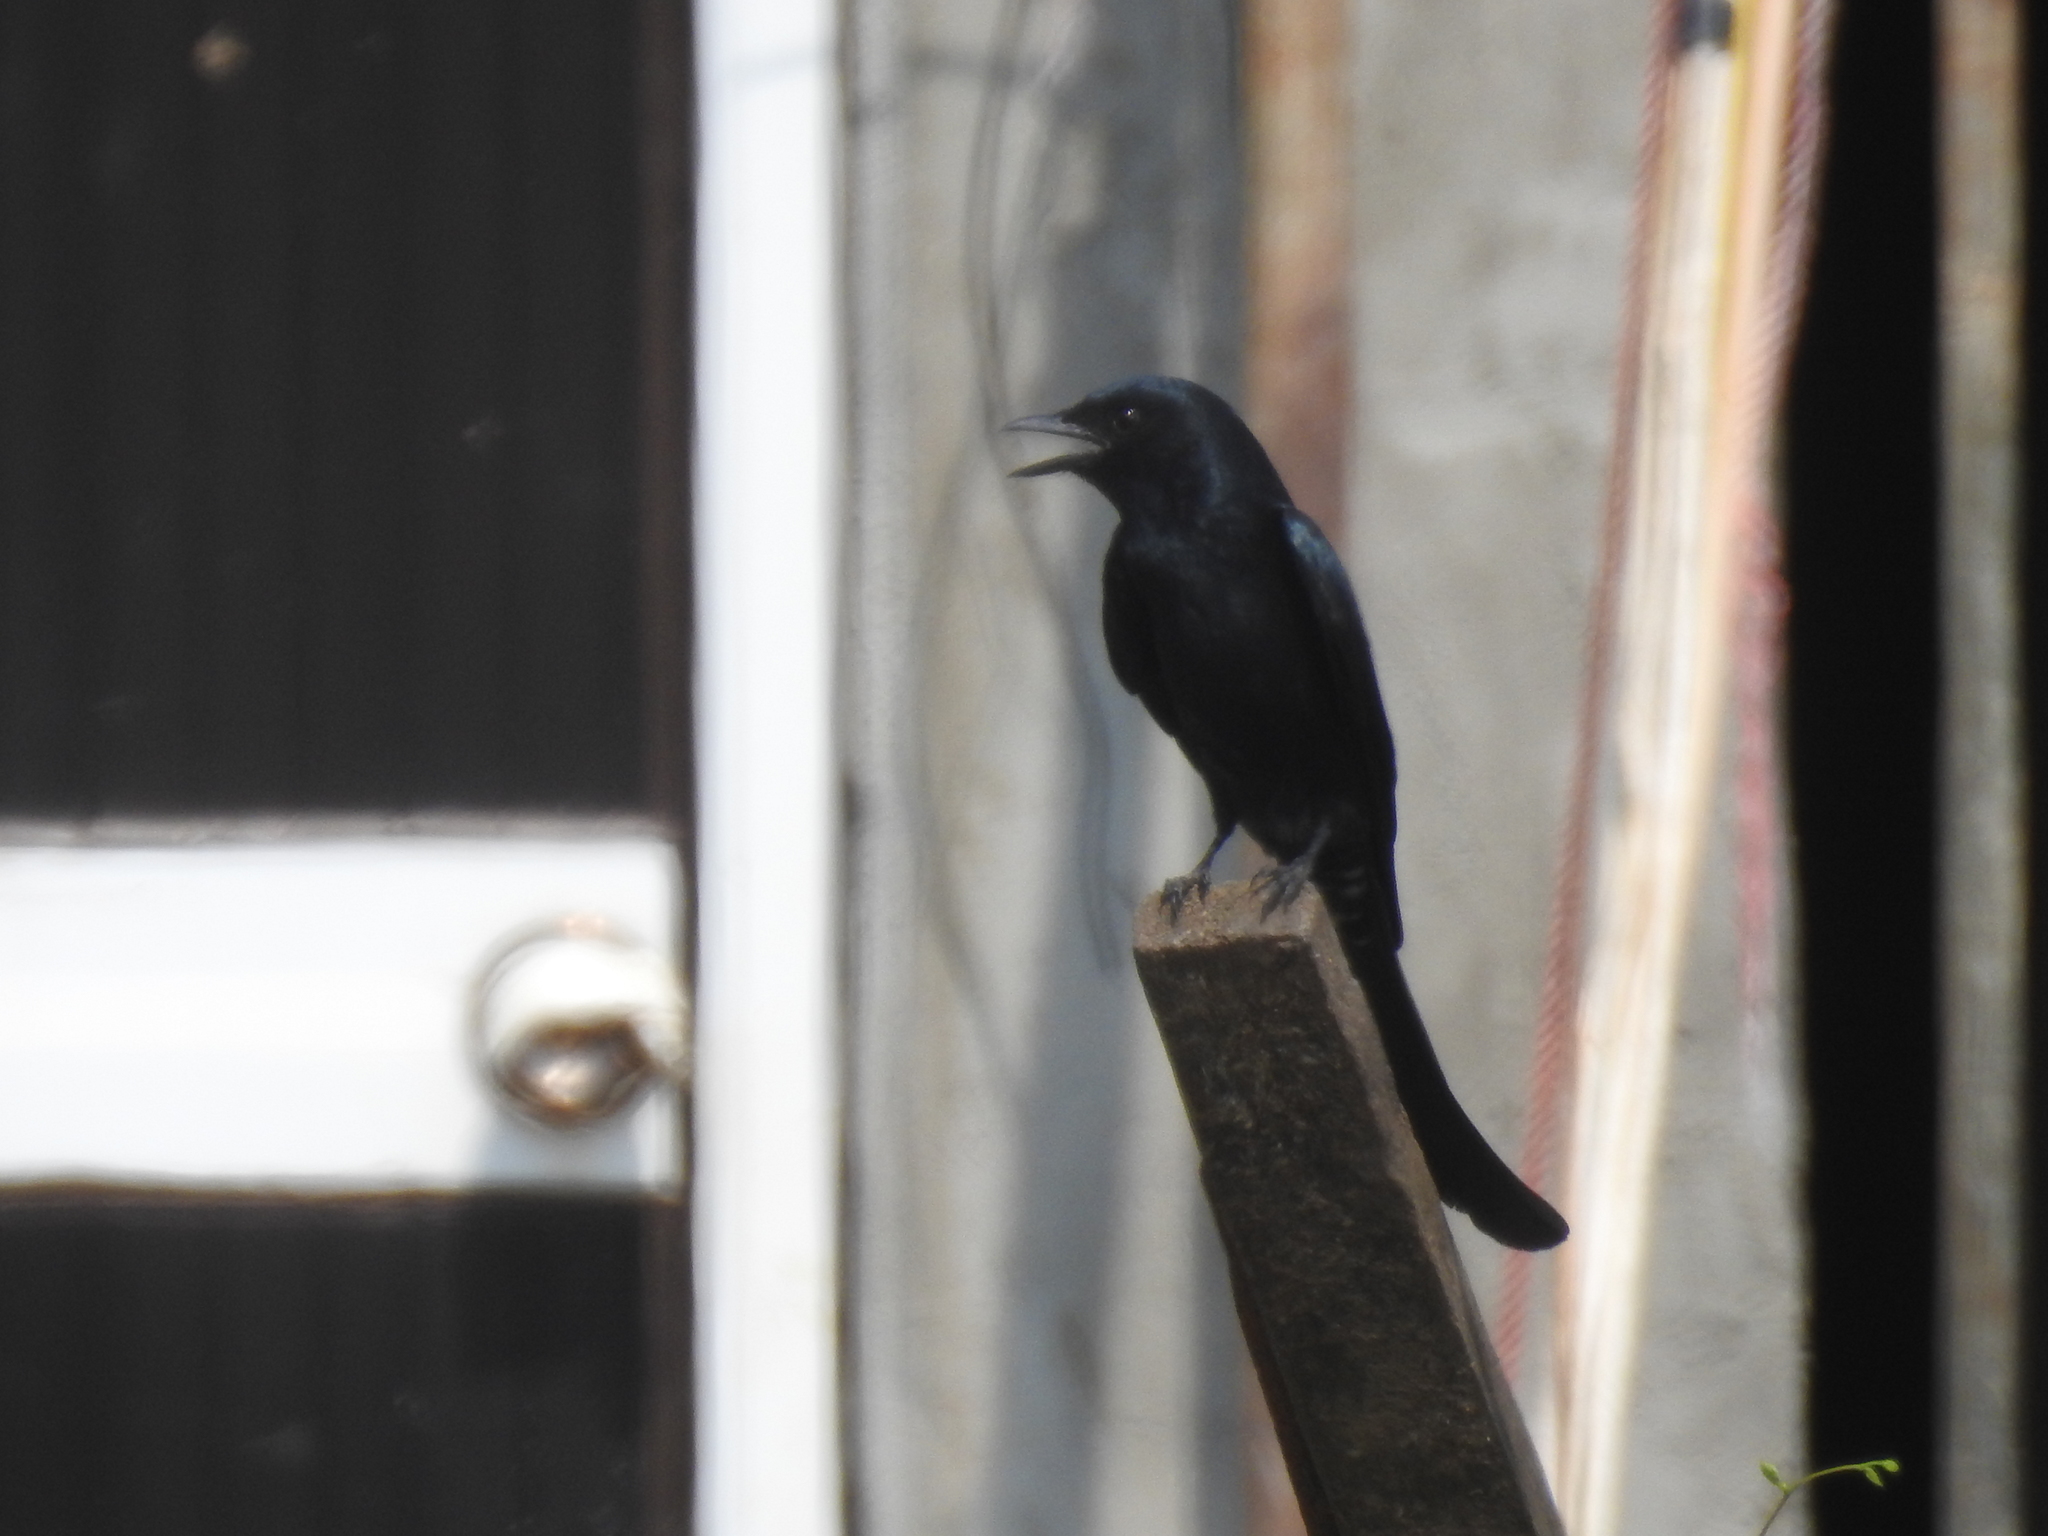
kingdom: Animalia
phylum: Chordata
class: Aves
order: Passeriformes
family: Dicruridae
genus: Dicrurus
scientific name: Dicrurus macrocercus
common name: Black drongo
